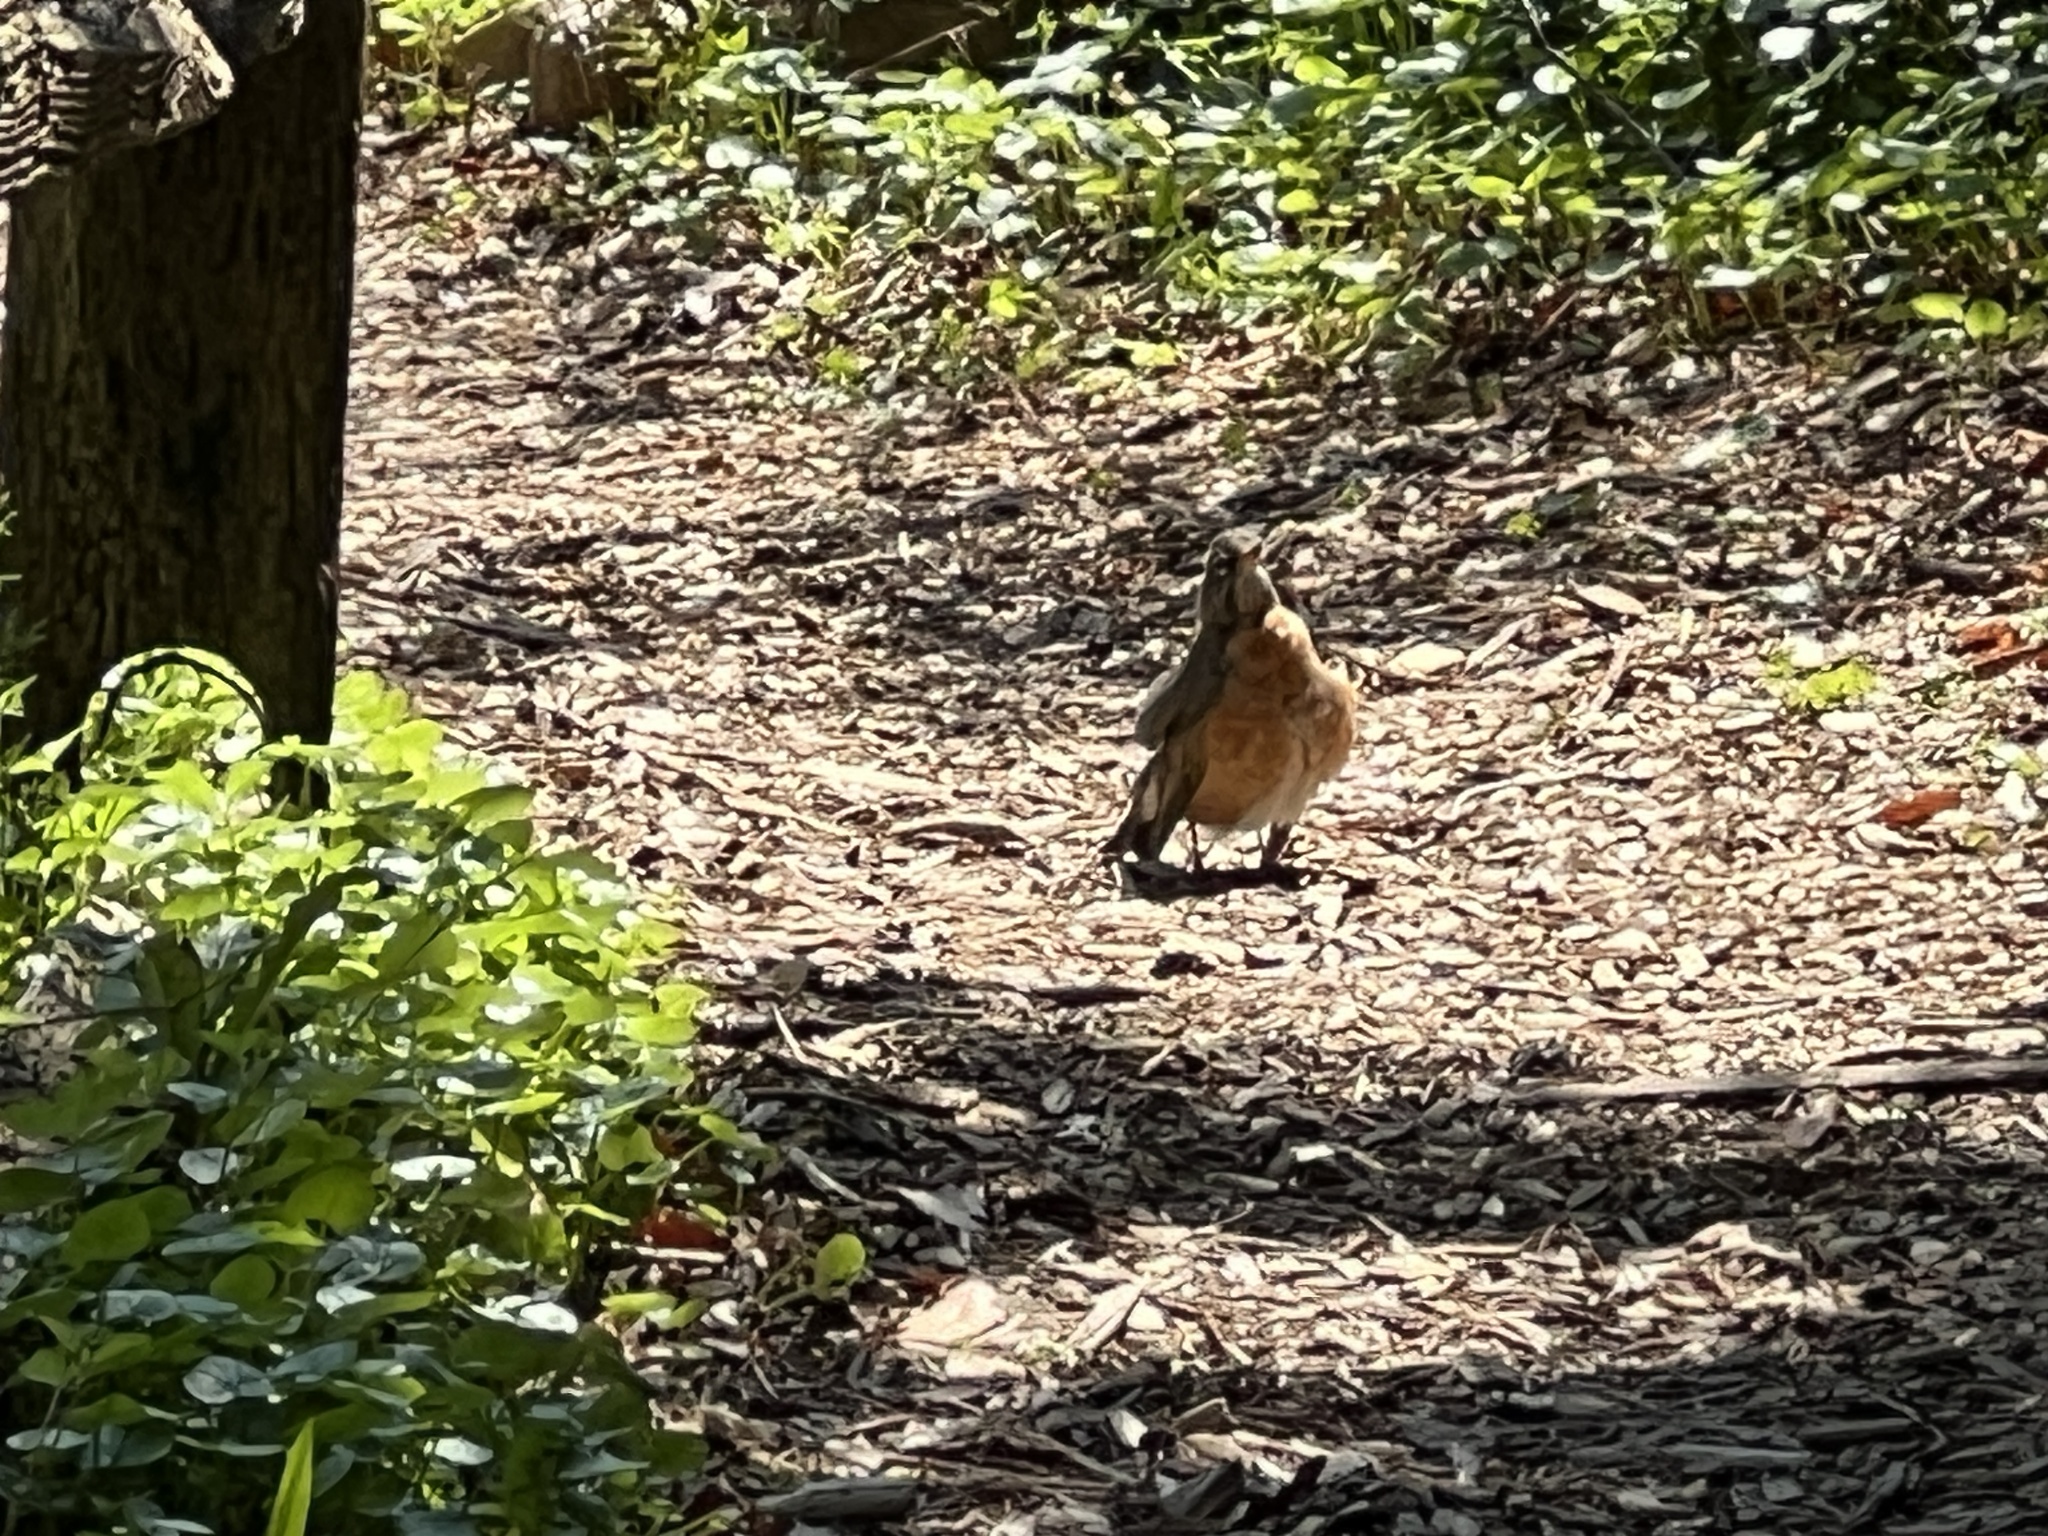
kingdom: Animalia
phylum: Chordata
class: Aves
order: Passeriformes
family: Turdidae
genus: Turdus
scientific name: Turdus migratorius
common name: American robin
